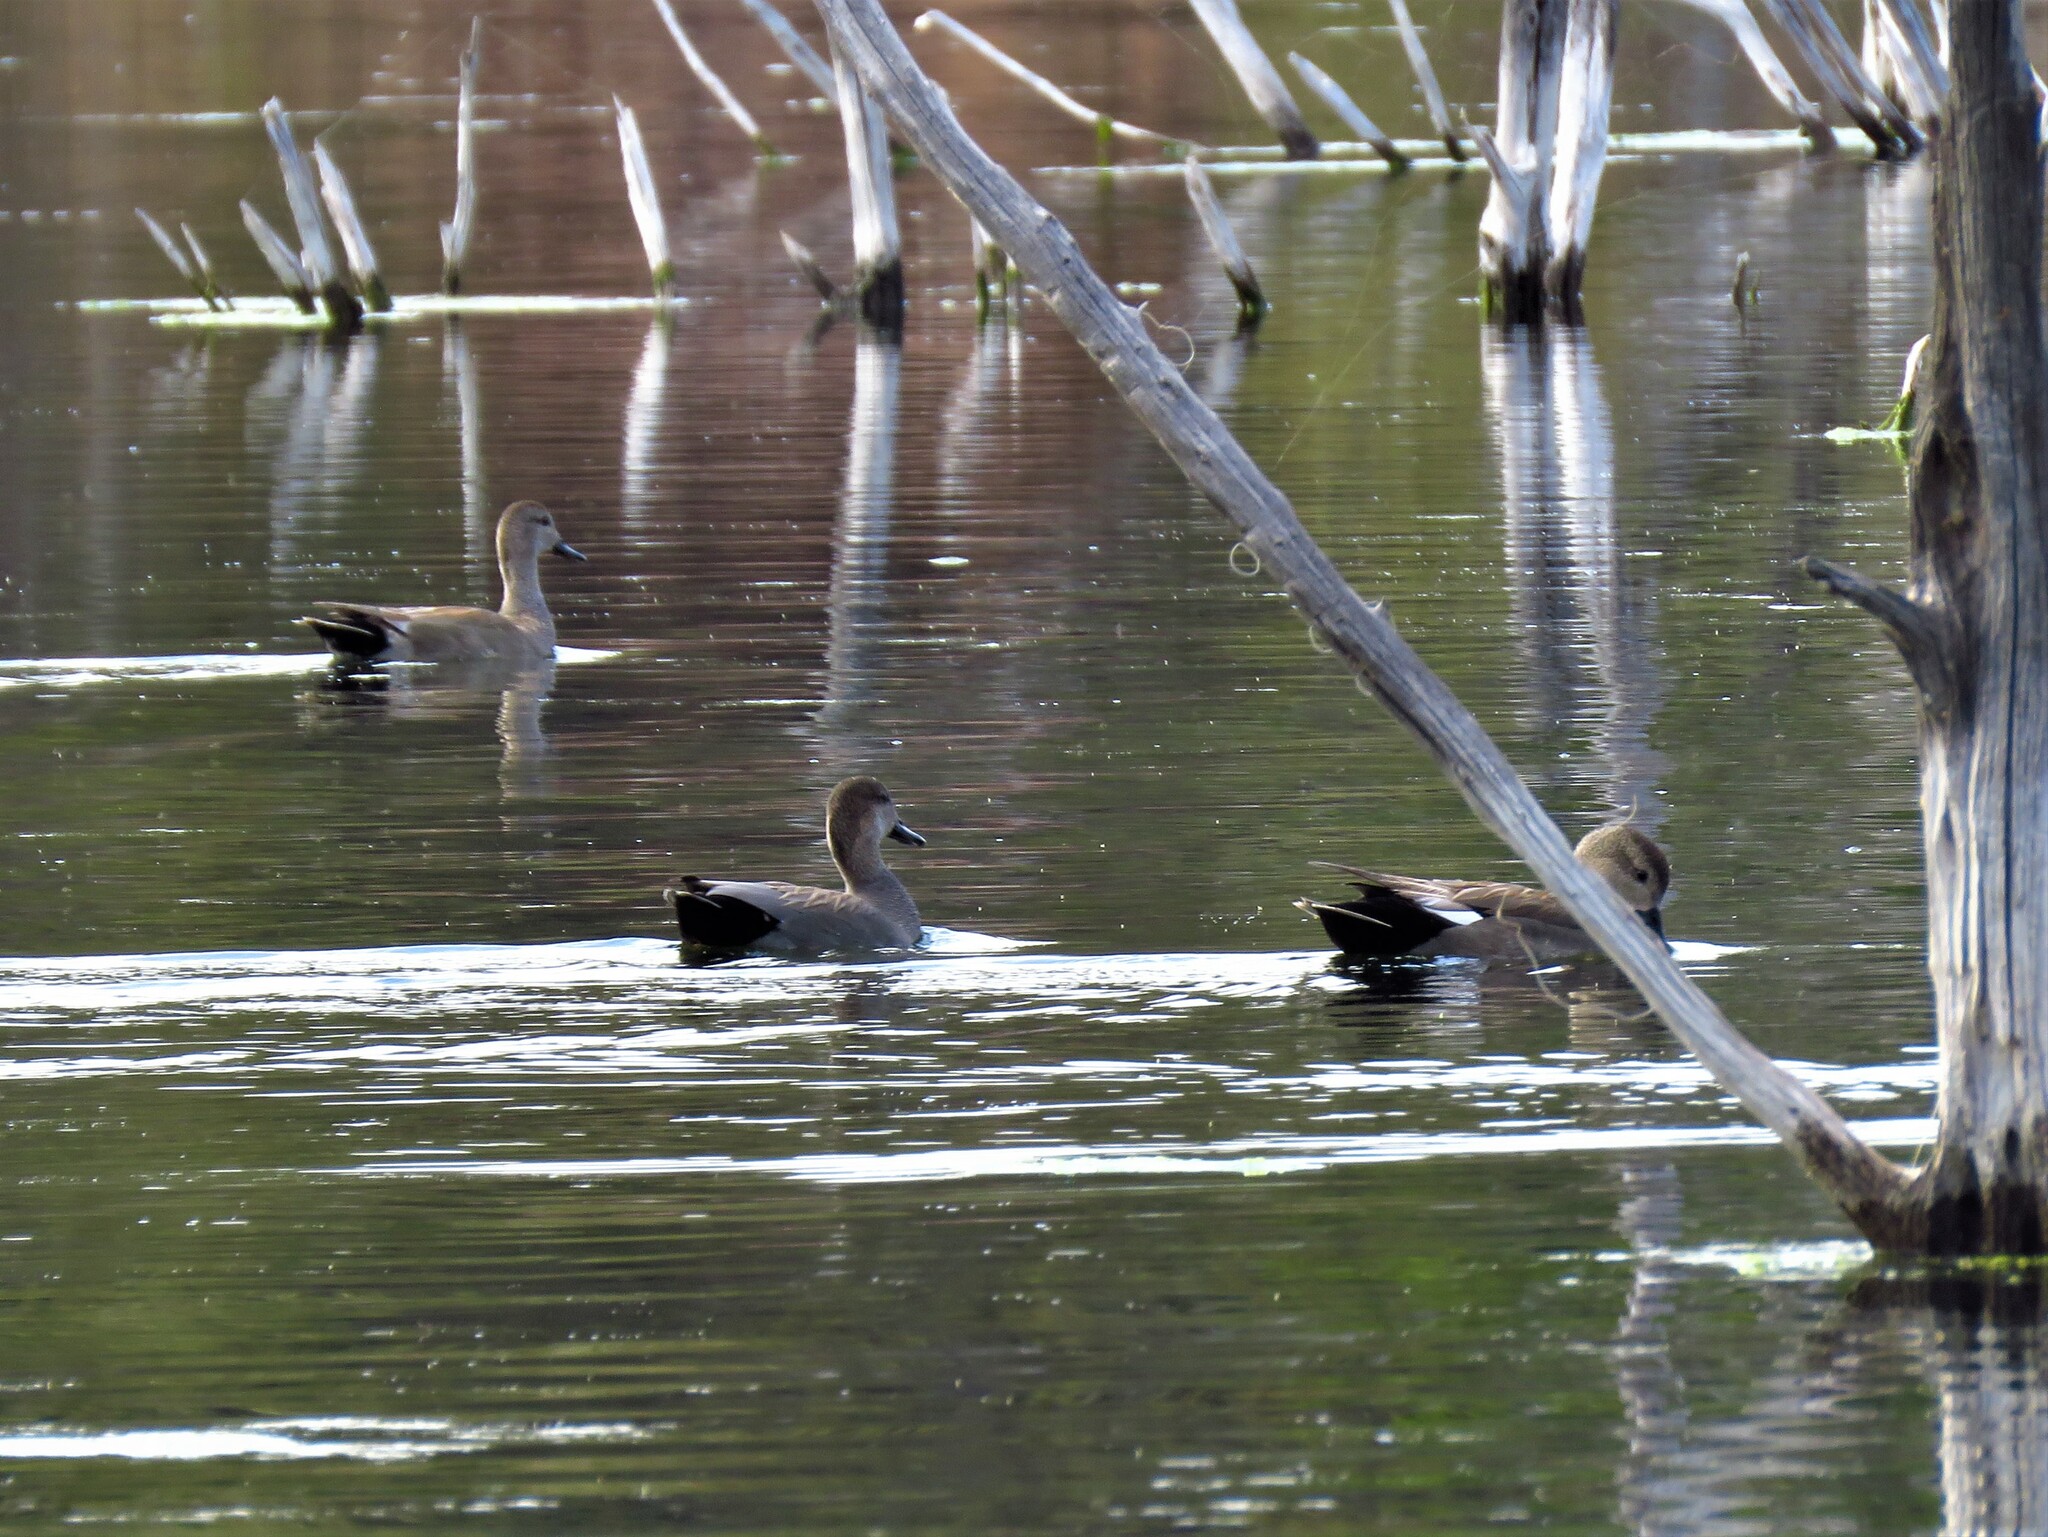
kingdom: Animalia
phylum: Chordata
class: Aves
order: Anseriformes
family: Anatidae
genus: Mareca
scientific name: Mareca strepera
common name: Gadwall
